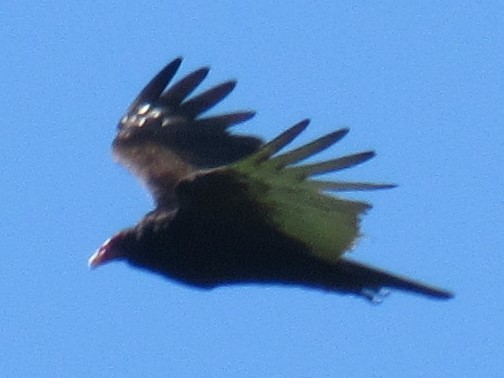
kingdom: Animalia
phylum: Chordata
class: Aves
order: Accipitriformes
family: Cathartidae
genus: Cathartes
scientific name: Cathartes aura
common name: Turkey vulture
